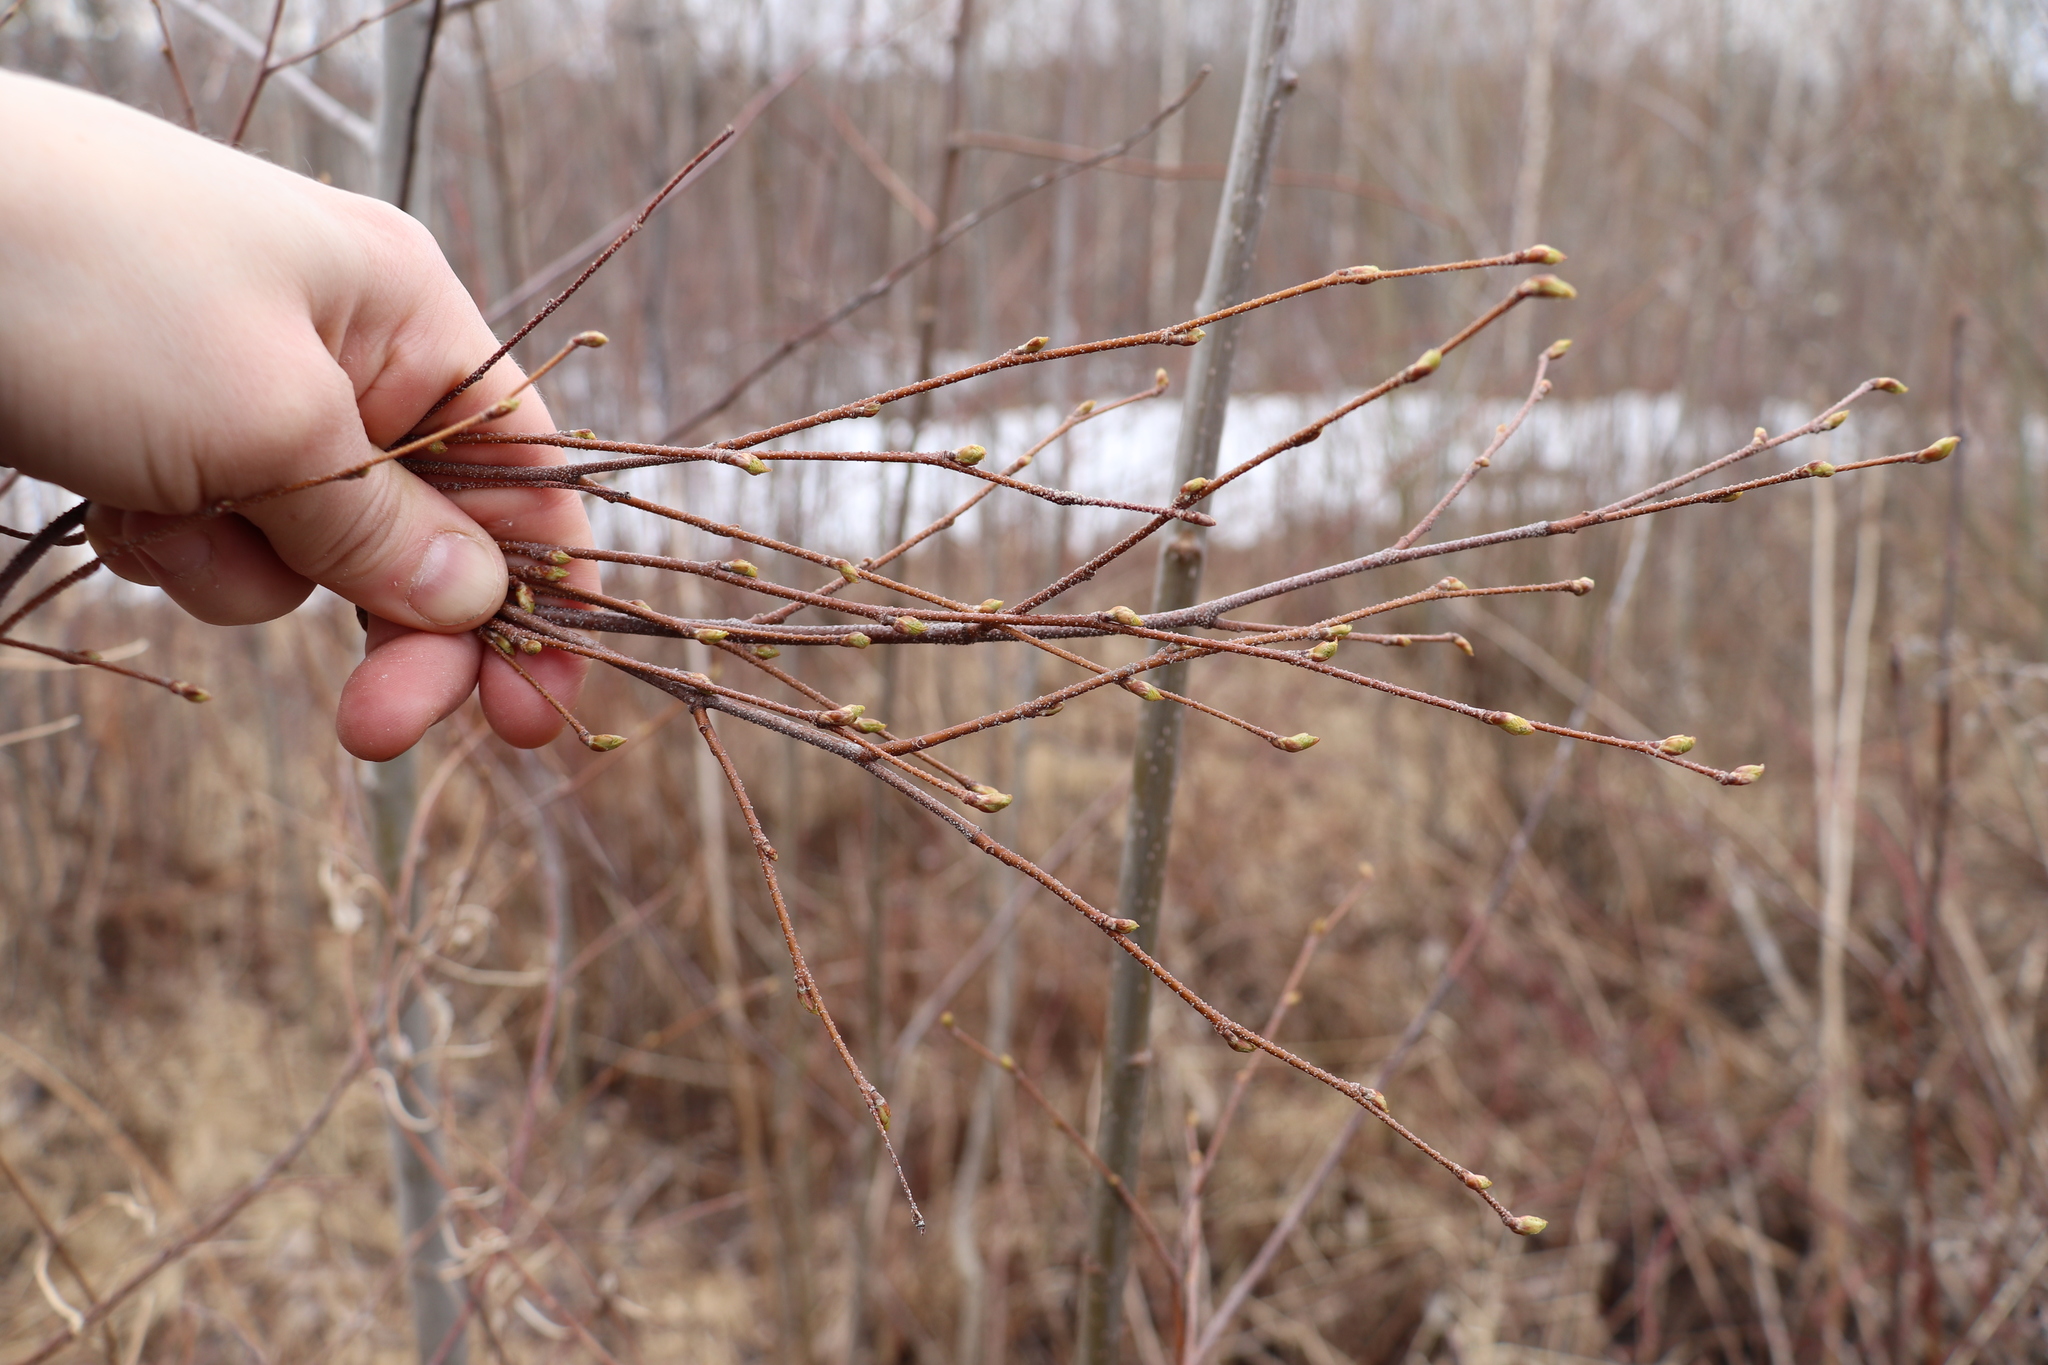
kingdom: Plantae
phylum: Tracheophyta
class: Magnoliopsida
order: Fagales
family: Betulaceae
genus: Betula
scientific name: Betula pendula
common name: Silver birch
